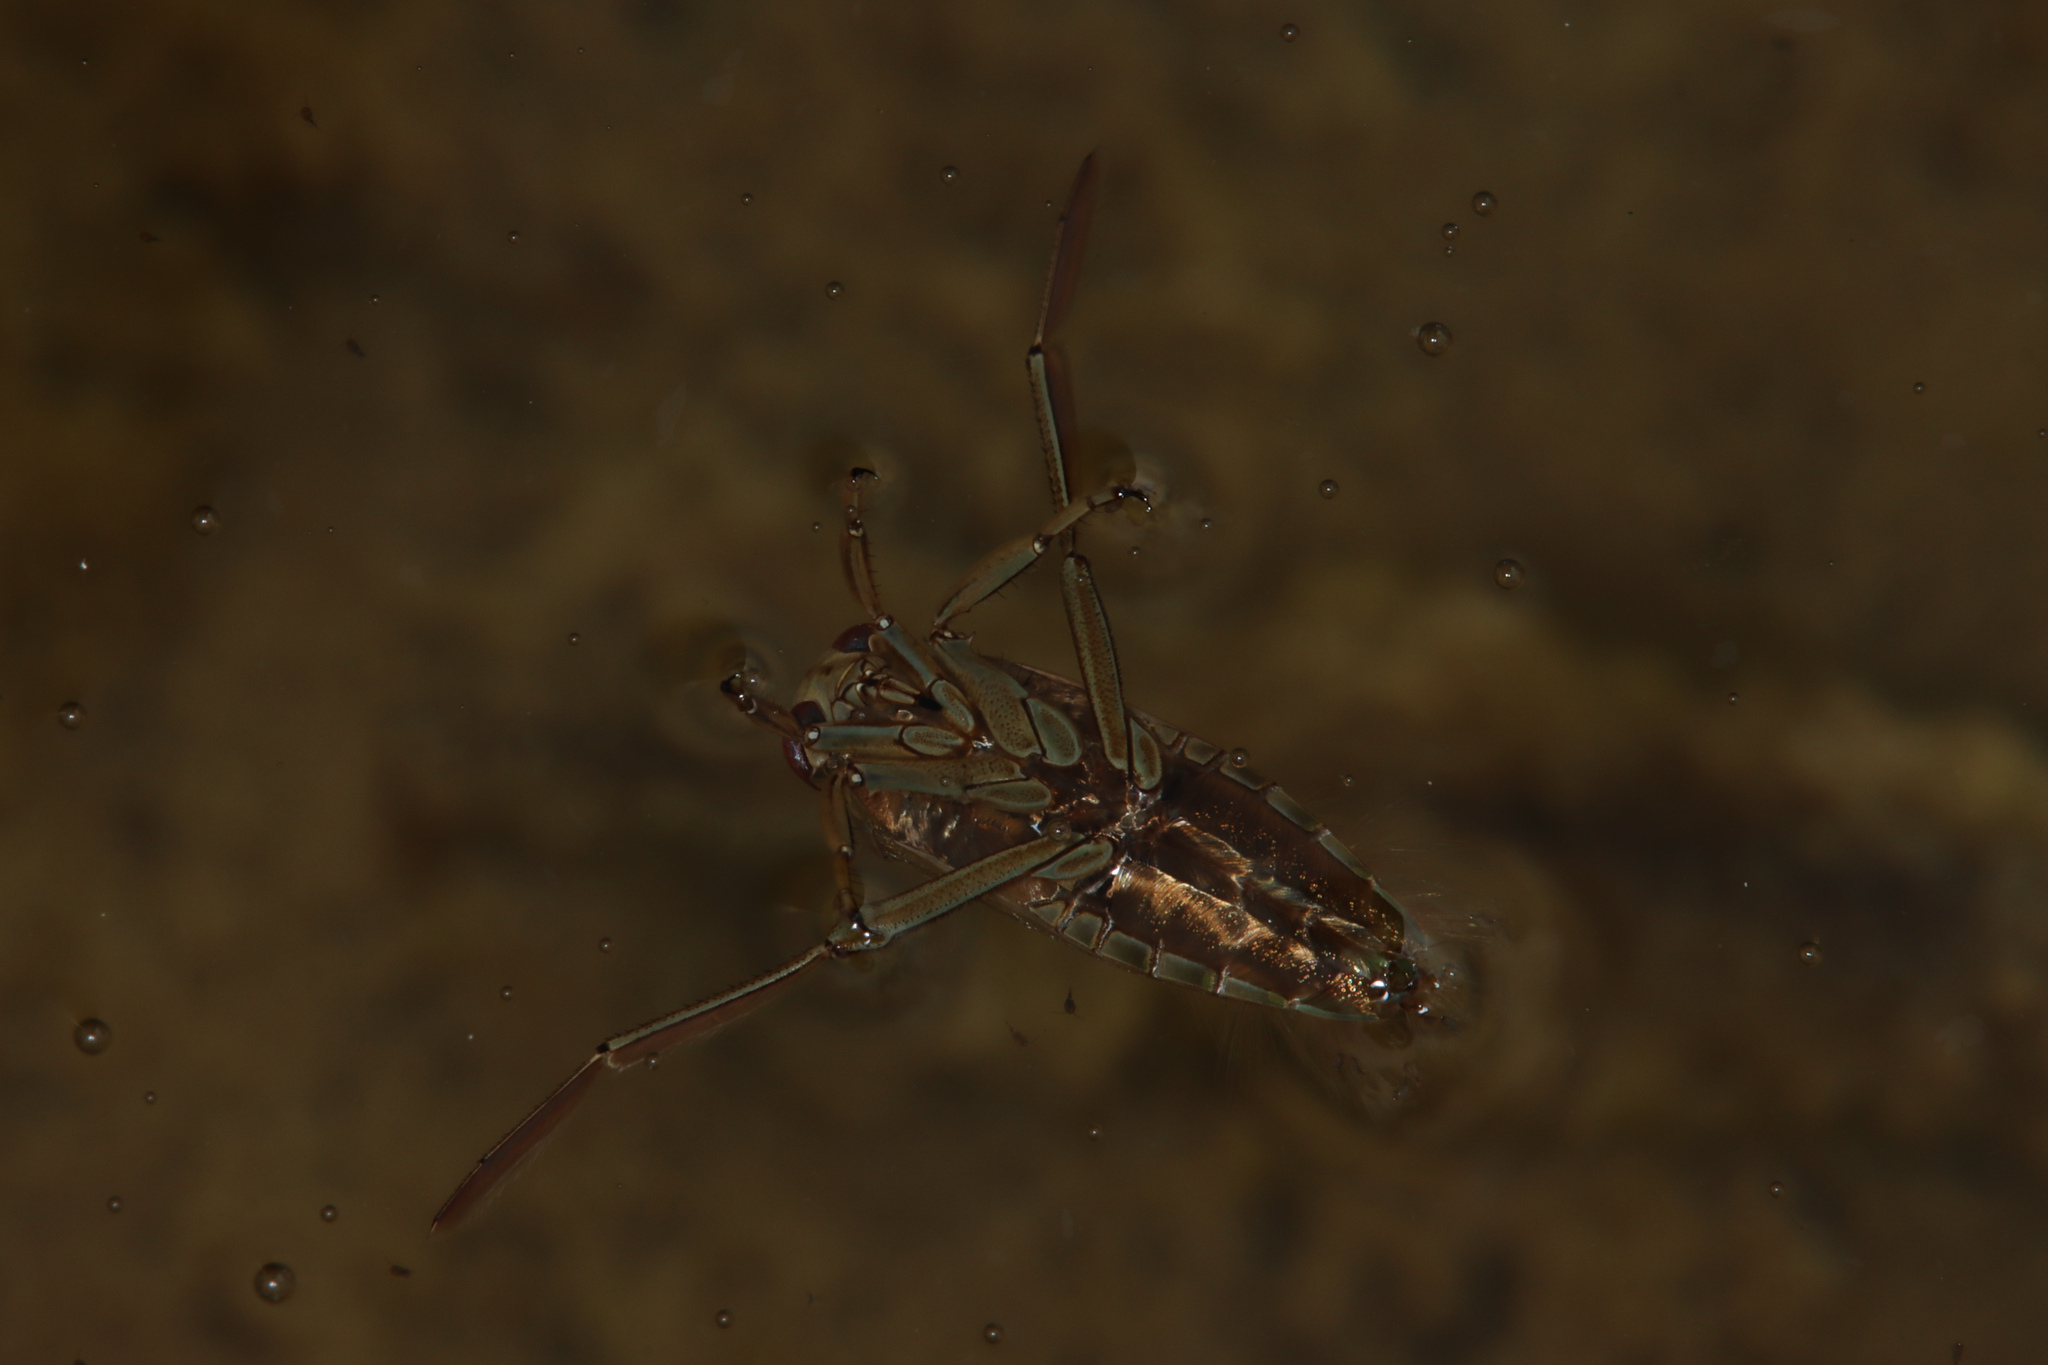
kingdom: Animalia
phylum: Arthropoda
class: Insecta
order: Hemiptera
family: Notonectidae
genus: Notonecta
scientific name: Notonecta
